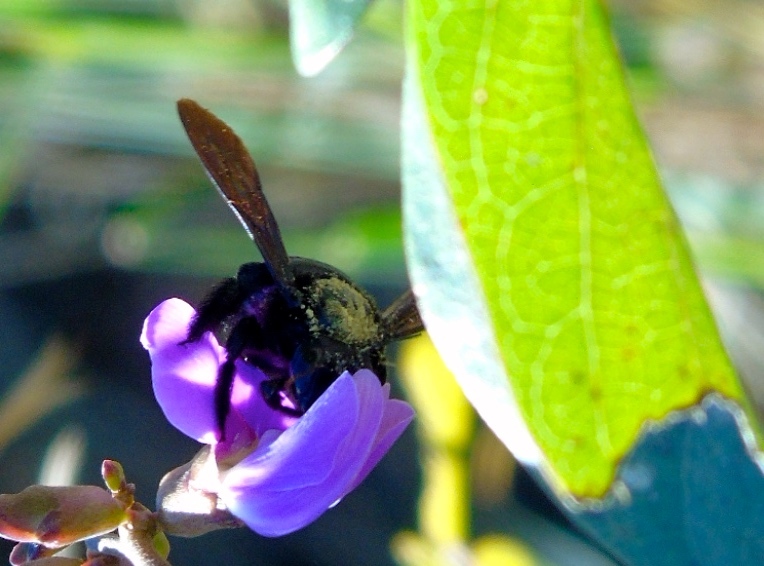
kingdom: Animalia
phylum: Arthropoda
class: Insecta
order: Hymenoptera
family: Apidae
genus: Xylocopa
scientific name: Xylocopa
